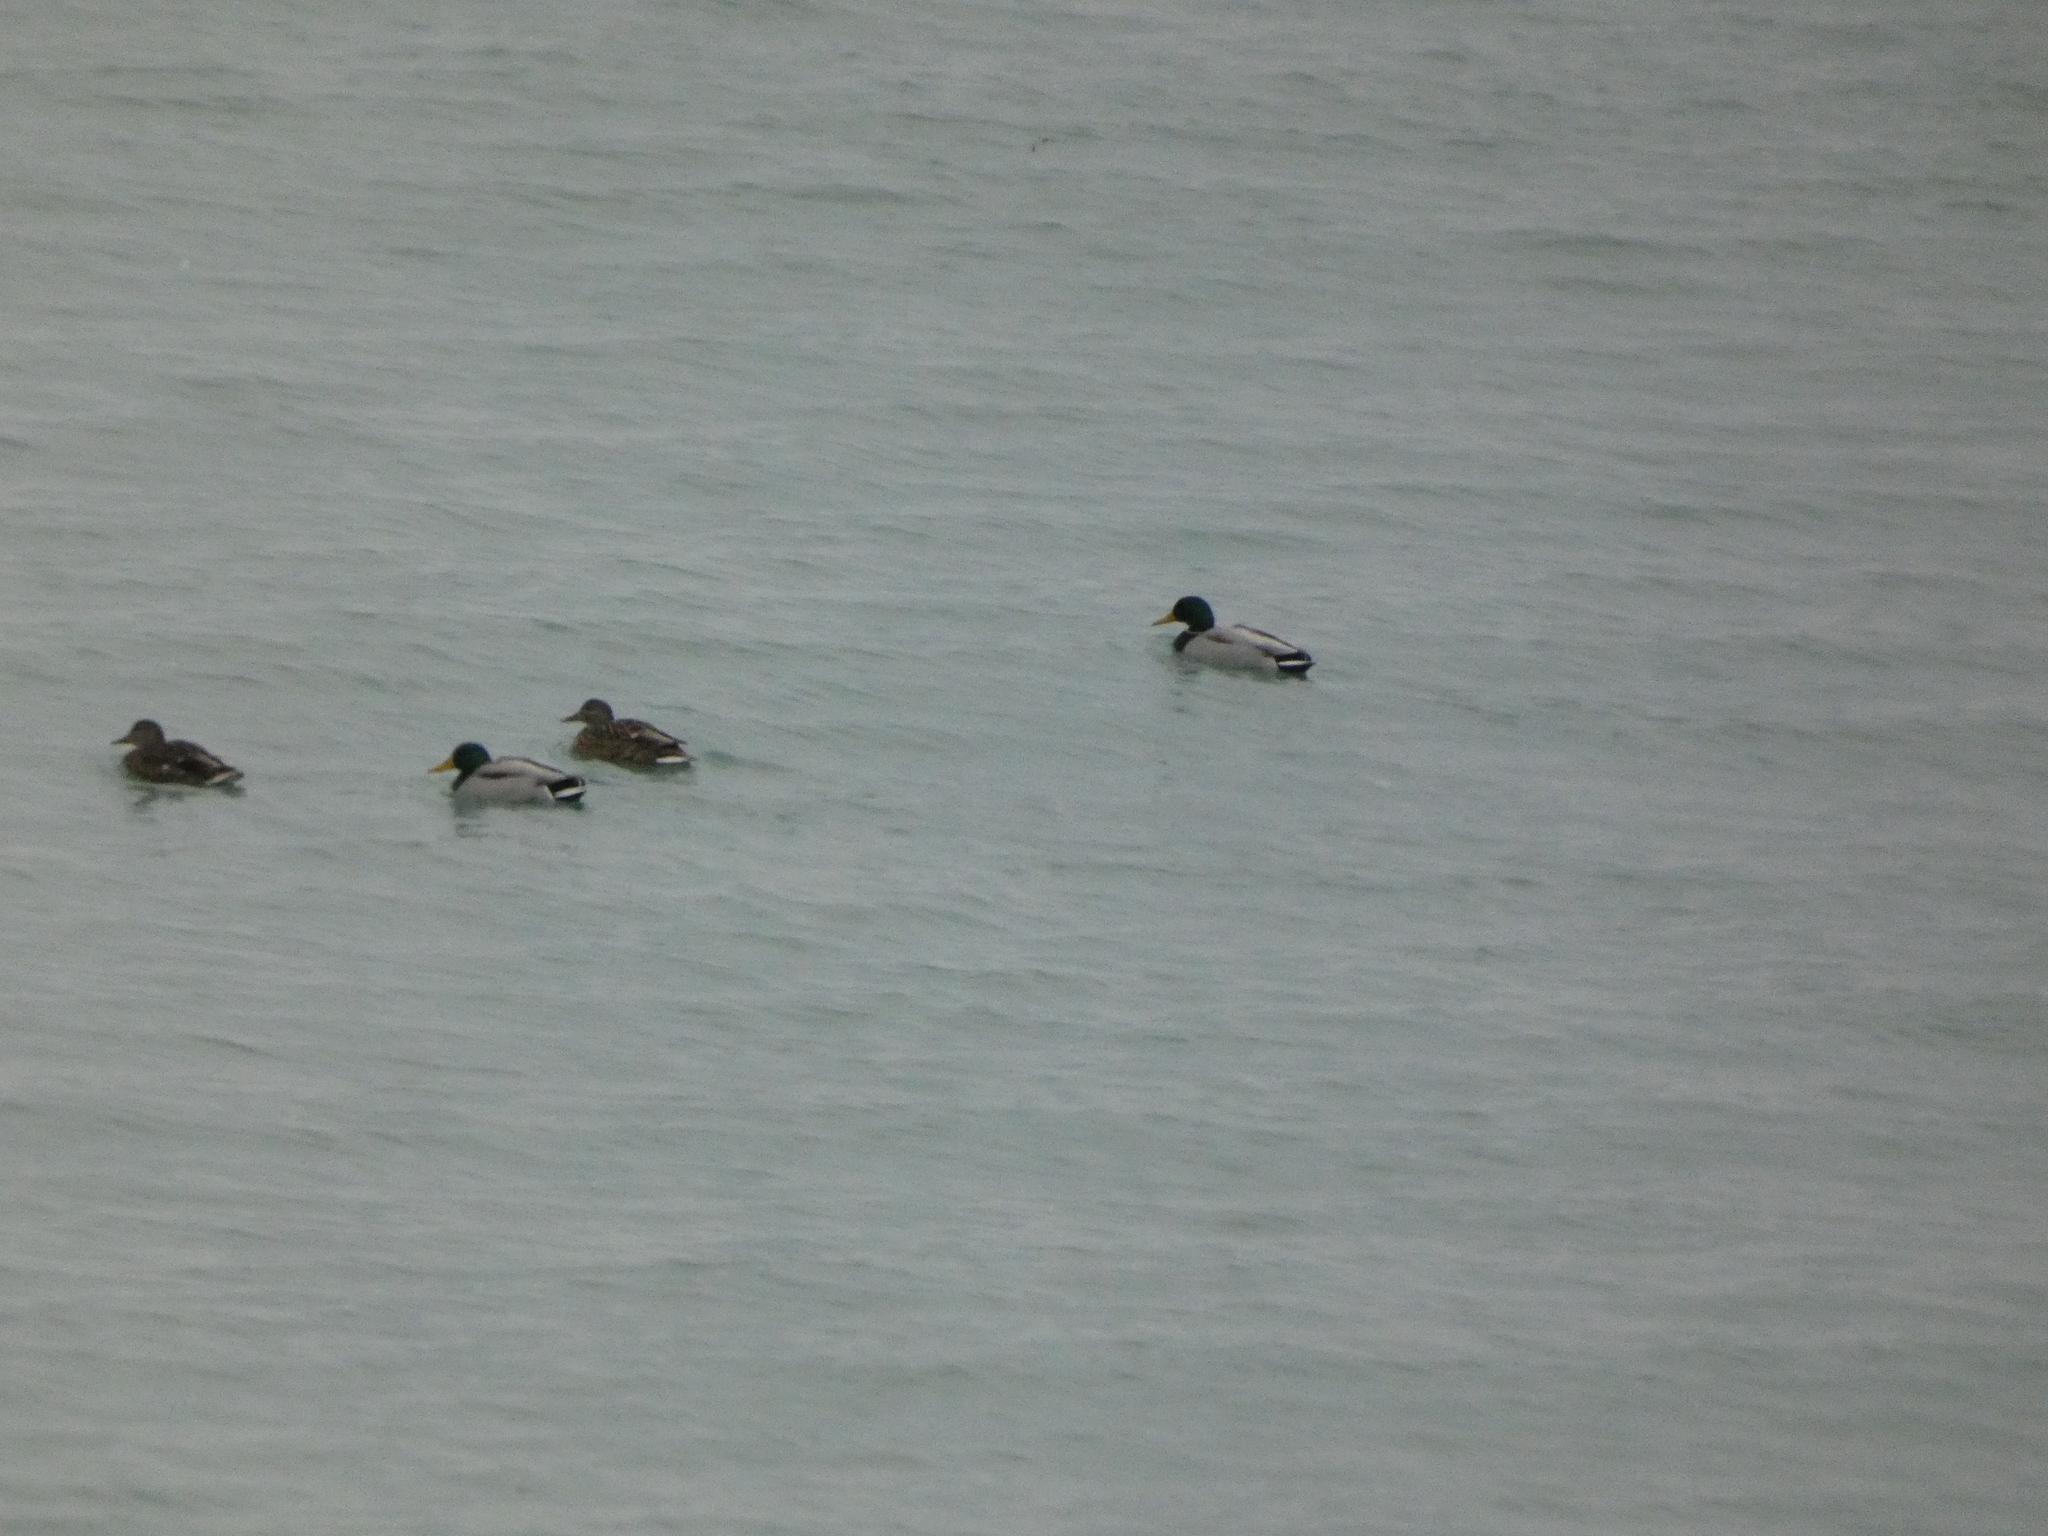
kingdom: Animalia
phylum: Chordata
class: Aves
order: Anseriformes
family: Anatidae
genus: Anas
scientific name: Anas platyrhynchos
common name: Mallard
